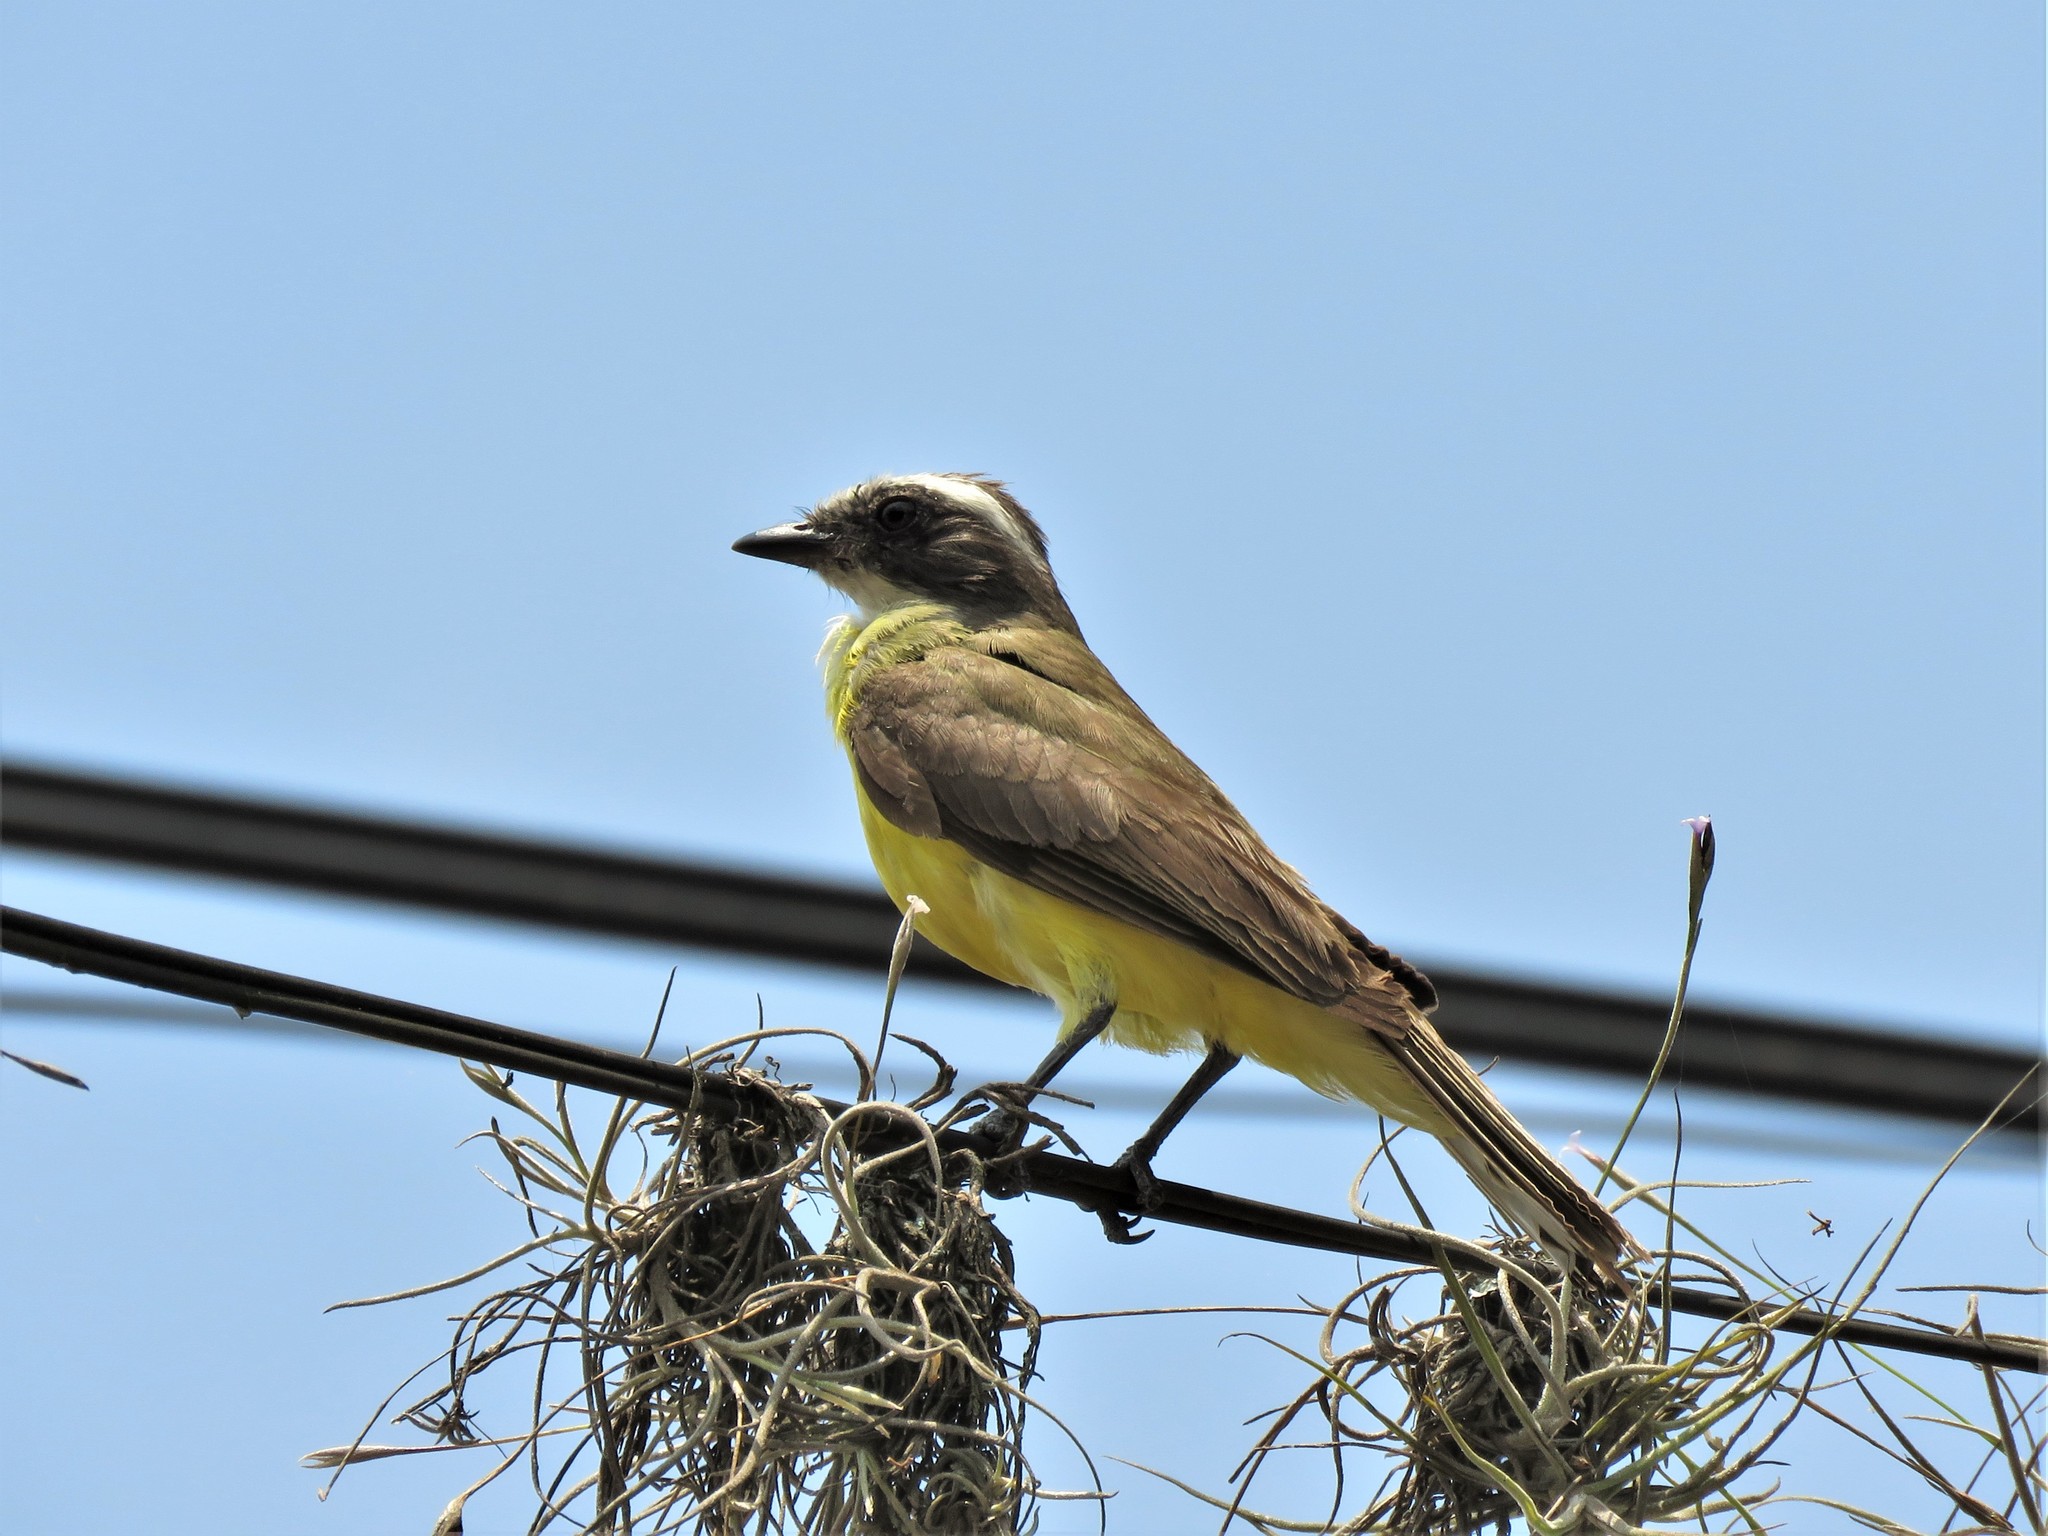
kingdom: Animalia
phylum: Chordata
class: Aves
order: Passeriformes
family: Tyrannidae
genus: Myiozetetes
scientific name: Myiozetetes similis
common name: Social flycatcher
